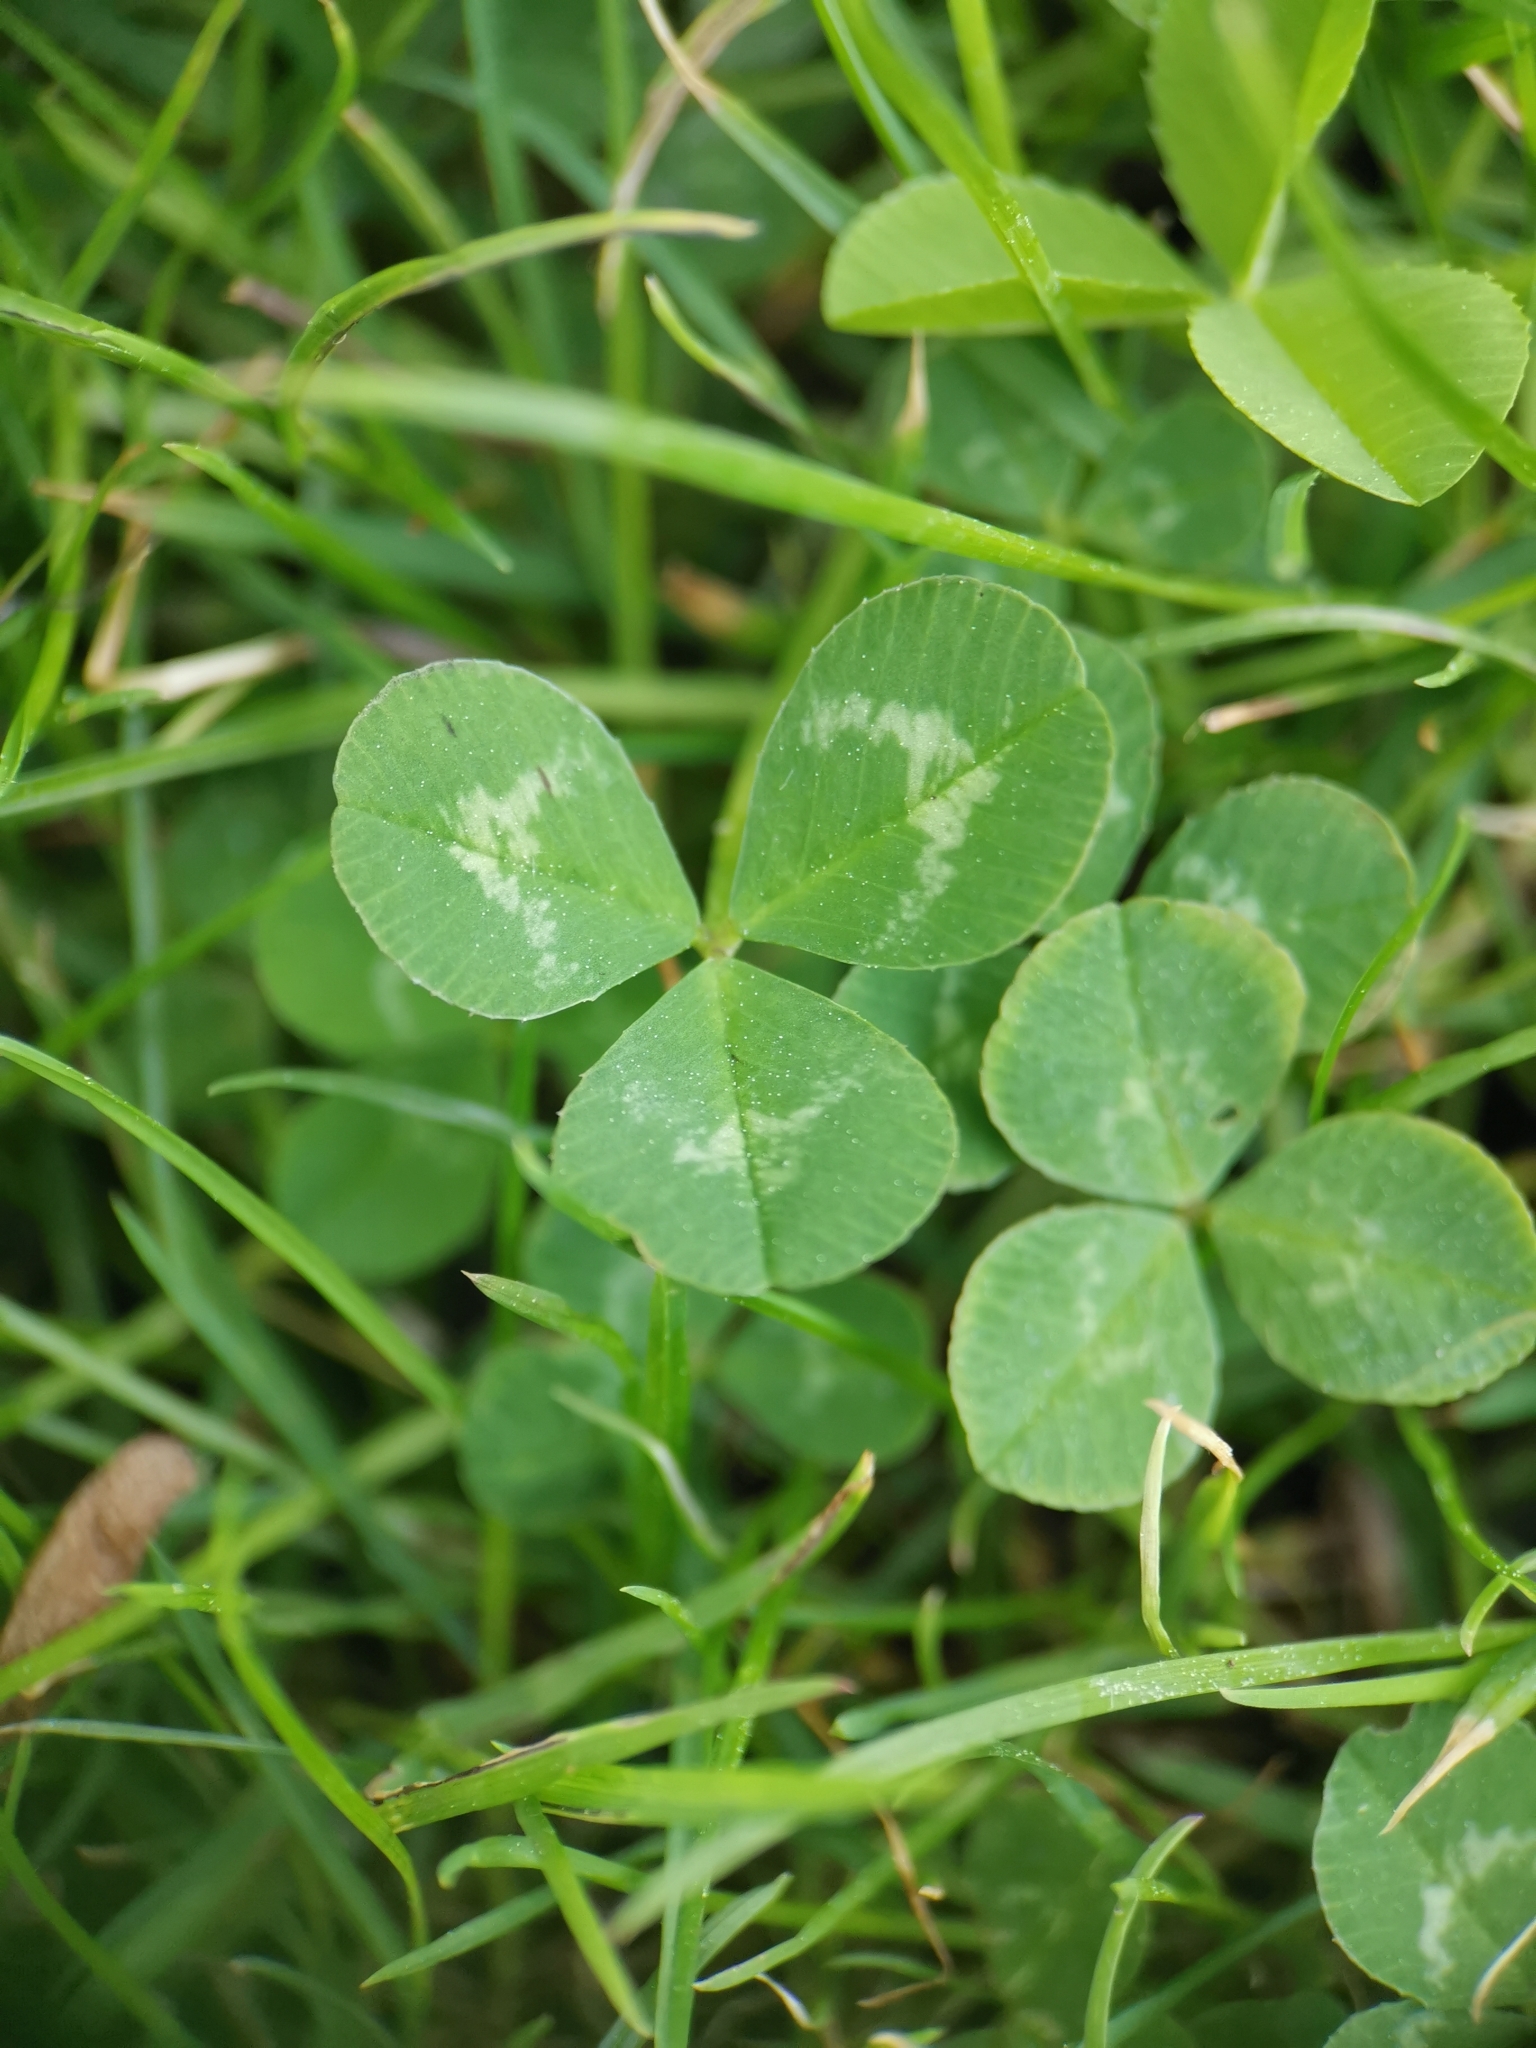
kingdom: Plantae
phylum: Tracheophyta
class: Magnoliopsida
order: Fabales
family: Fabaceae
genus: Trifolium
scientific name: Trifolium repens
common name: White clover
